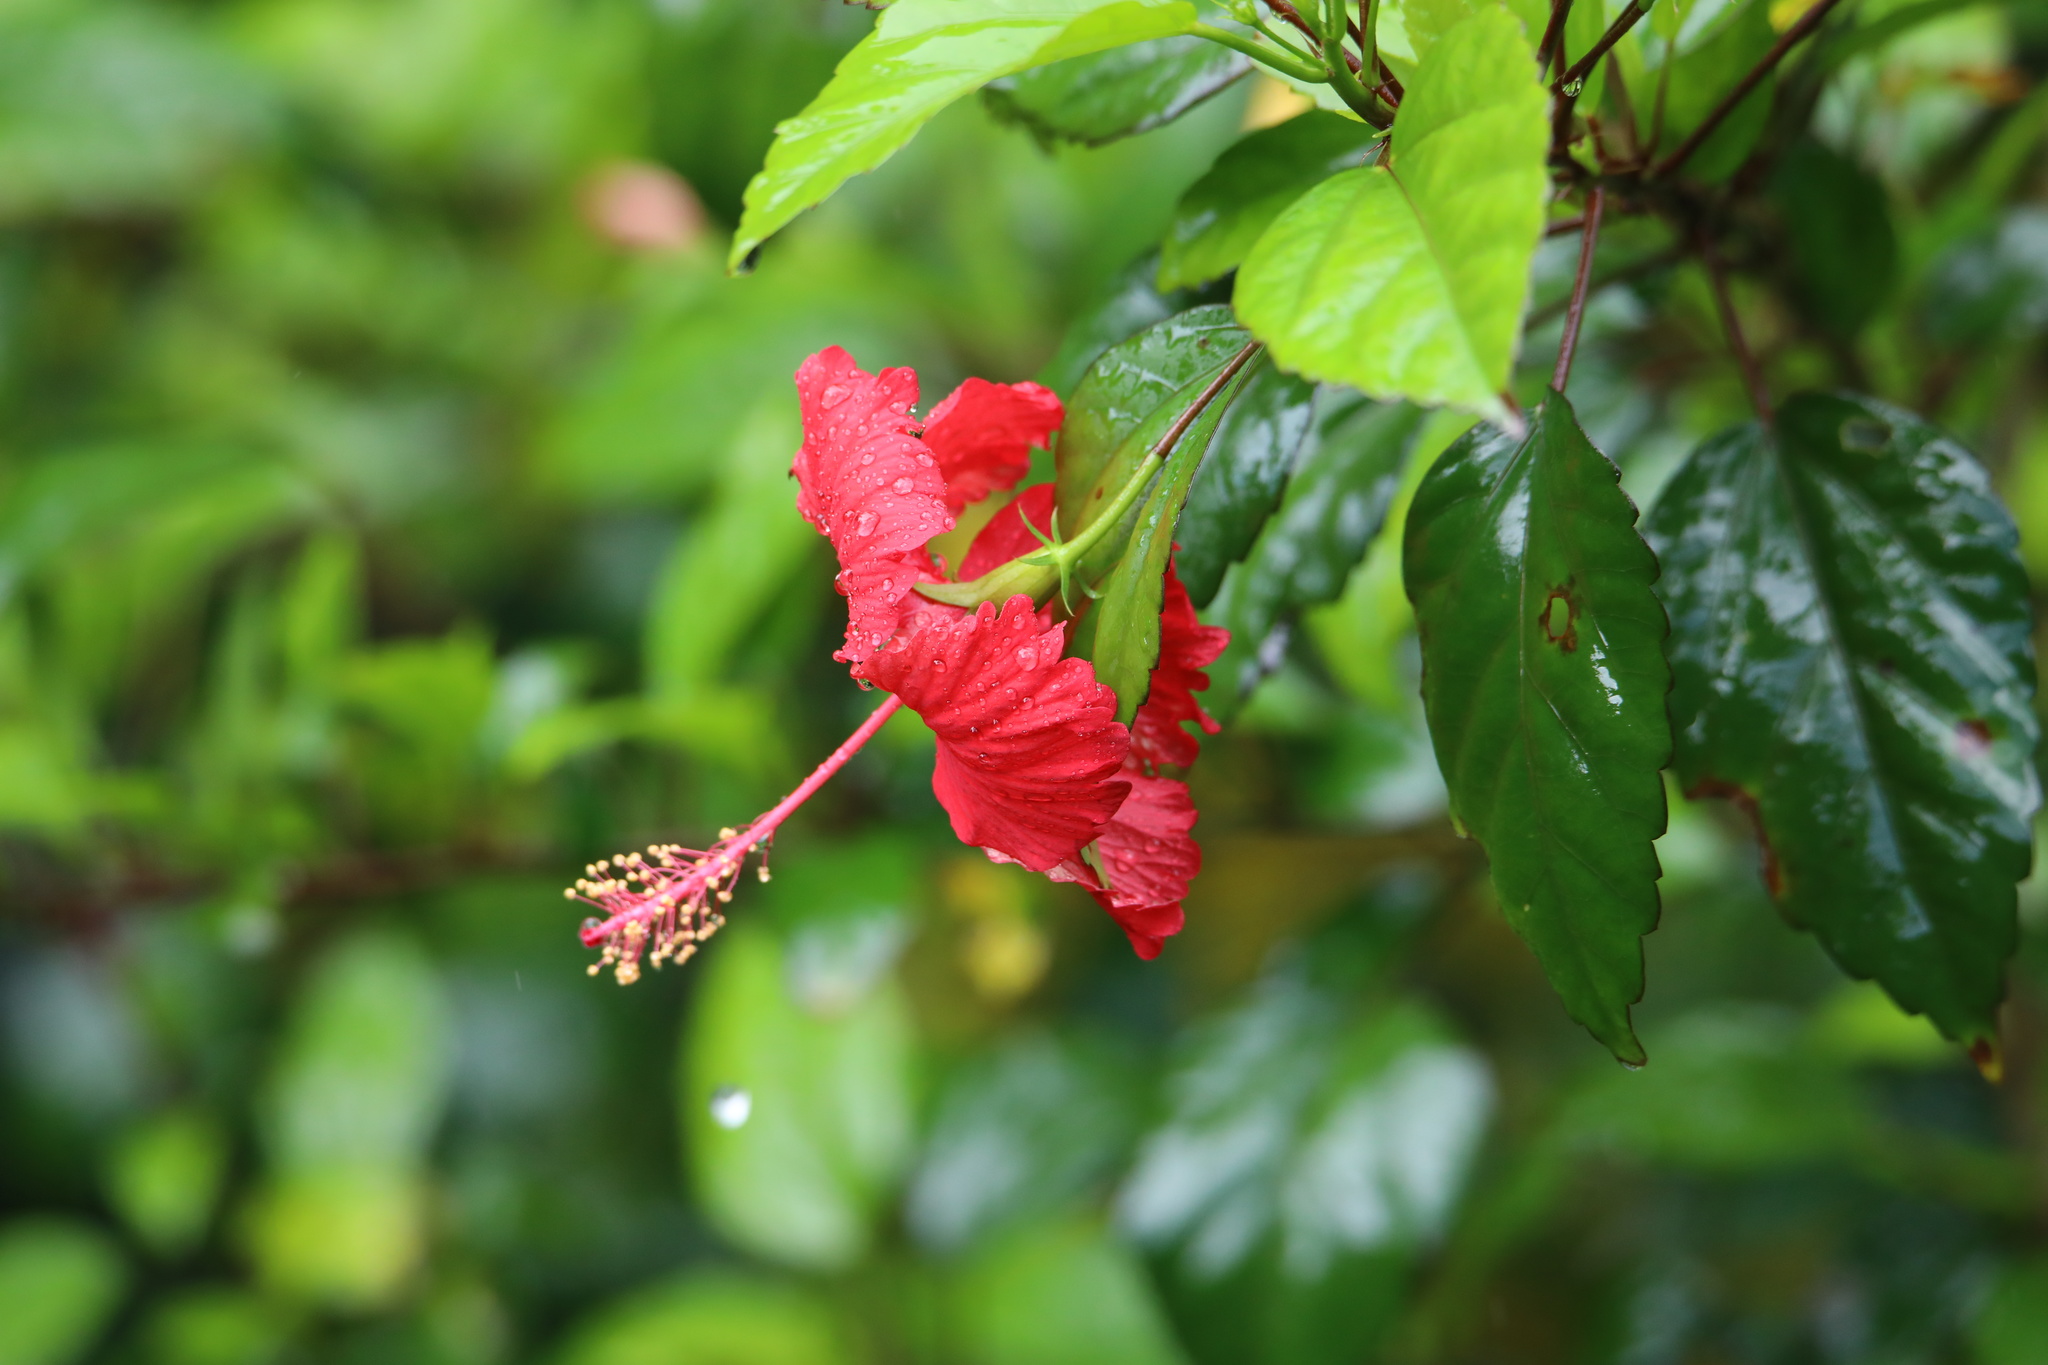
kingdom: Plantae
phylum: Tracheophyta
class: Magnoliopsida
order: Malvales
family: Malvaceae
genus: Hibiscus
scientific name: Hibiscus archeri
